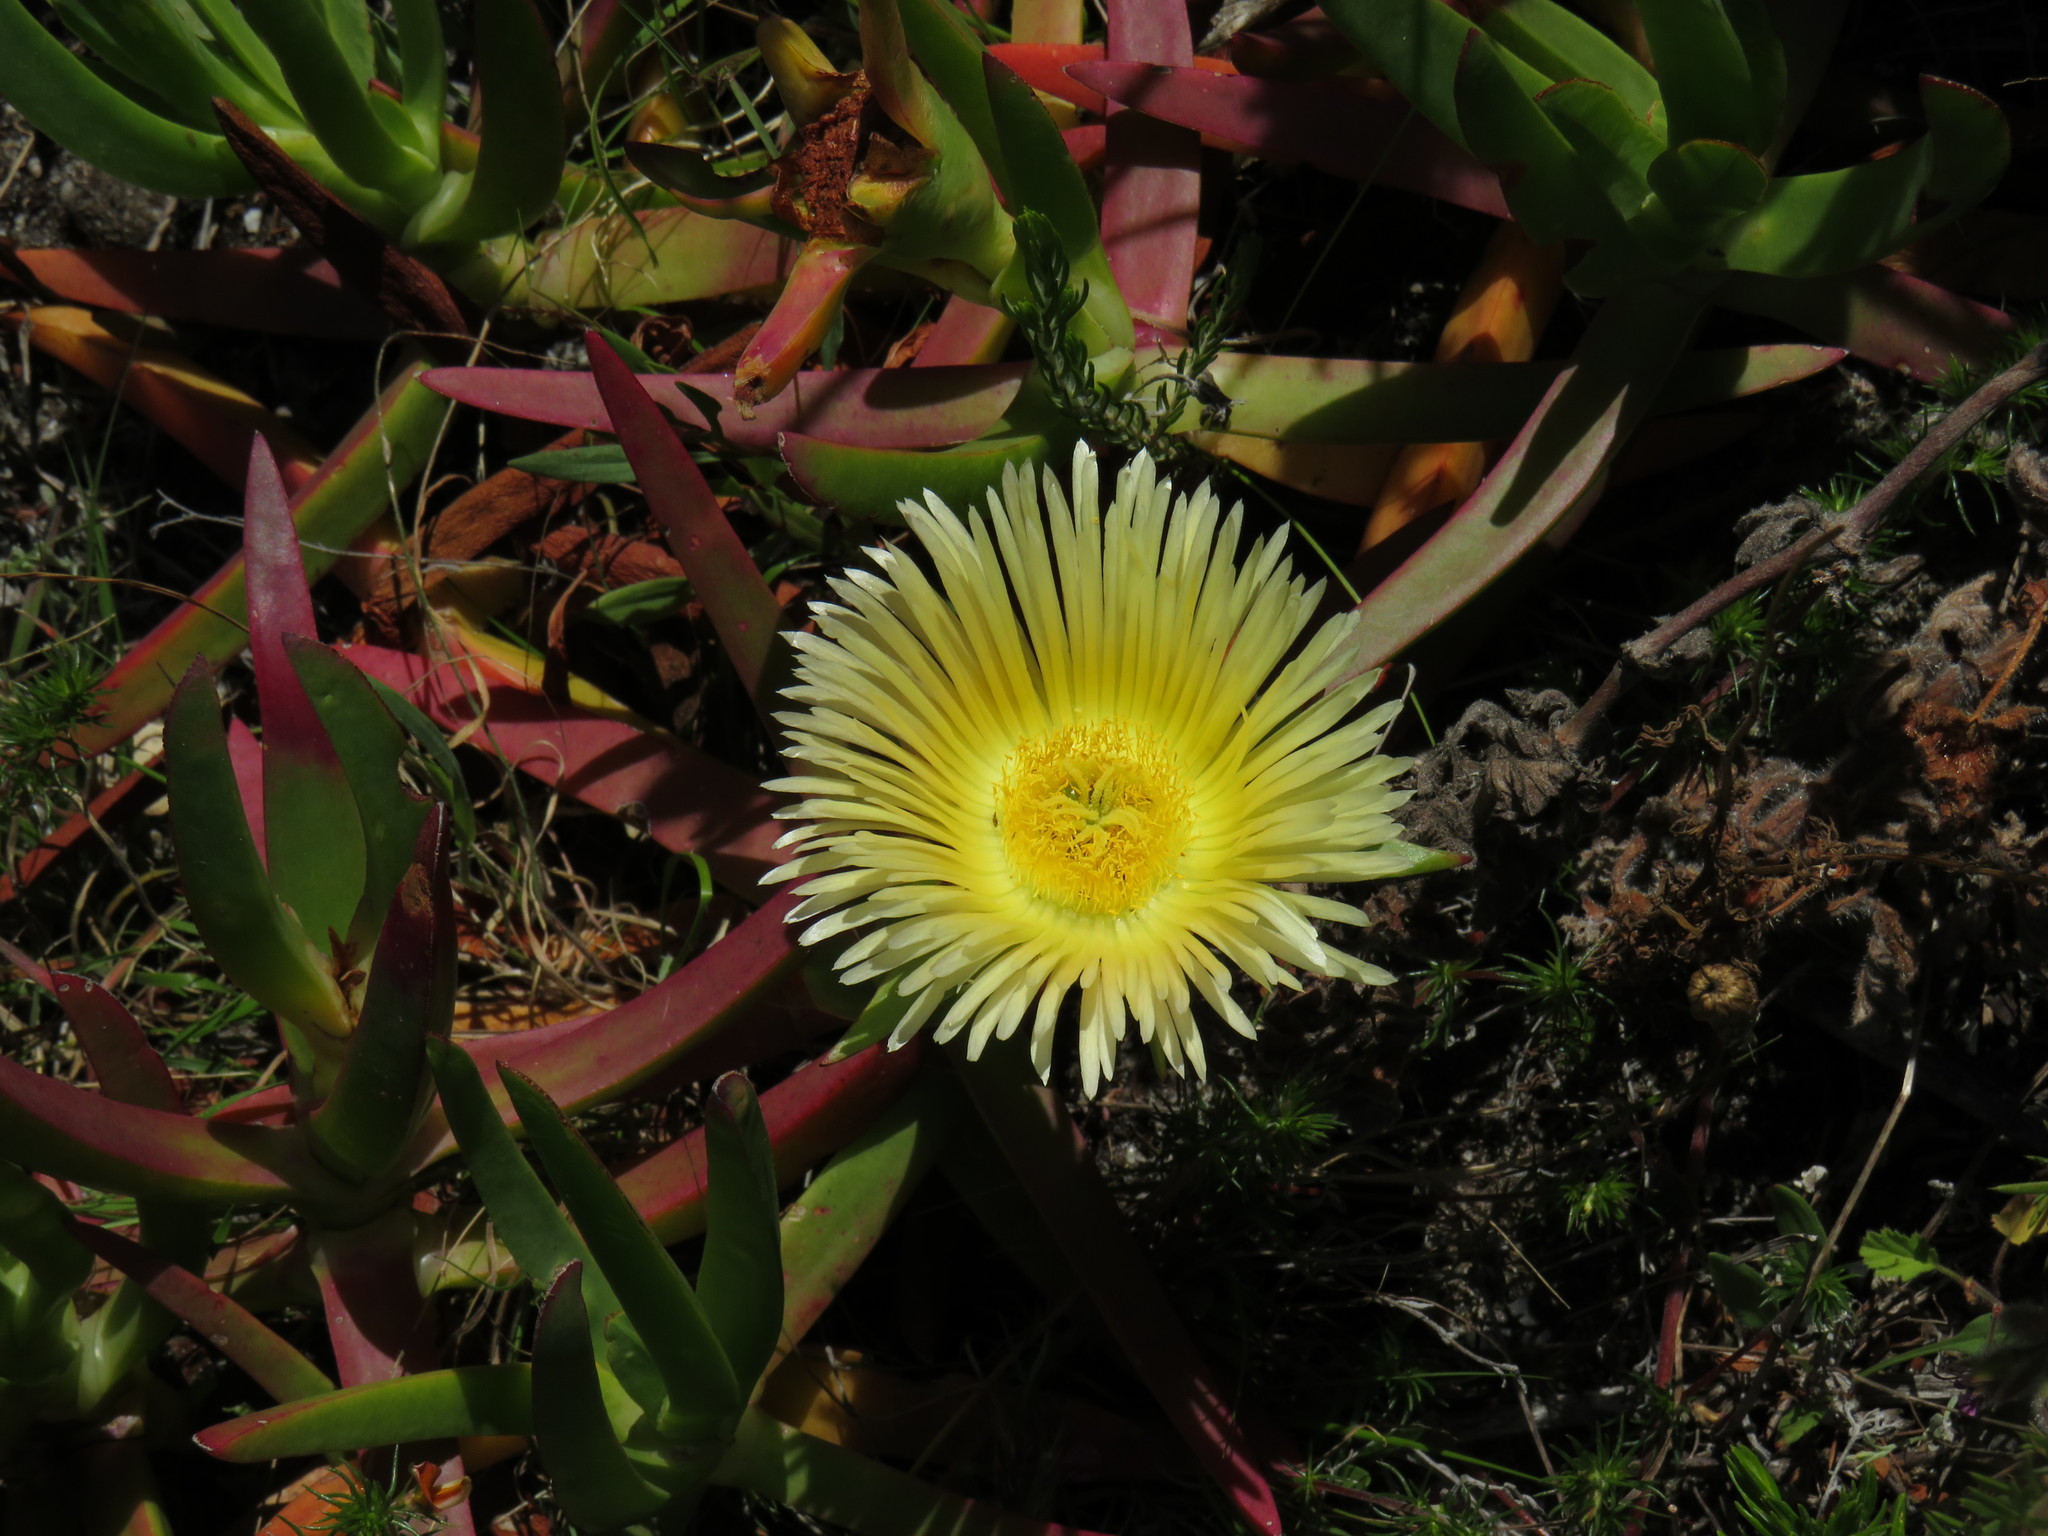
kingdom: Plantae
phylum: Tracheophyta
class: Magnoliopsida
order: Caryophyllales
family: Aizoaceae
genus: Carpobrotus
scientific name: Carpobrotus edulis
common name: Hottentot-fig
